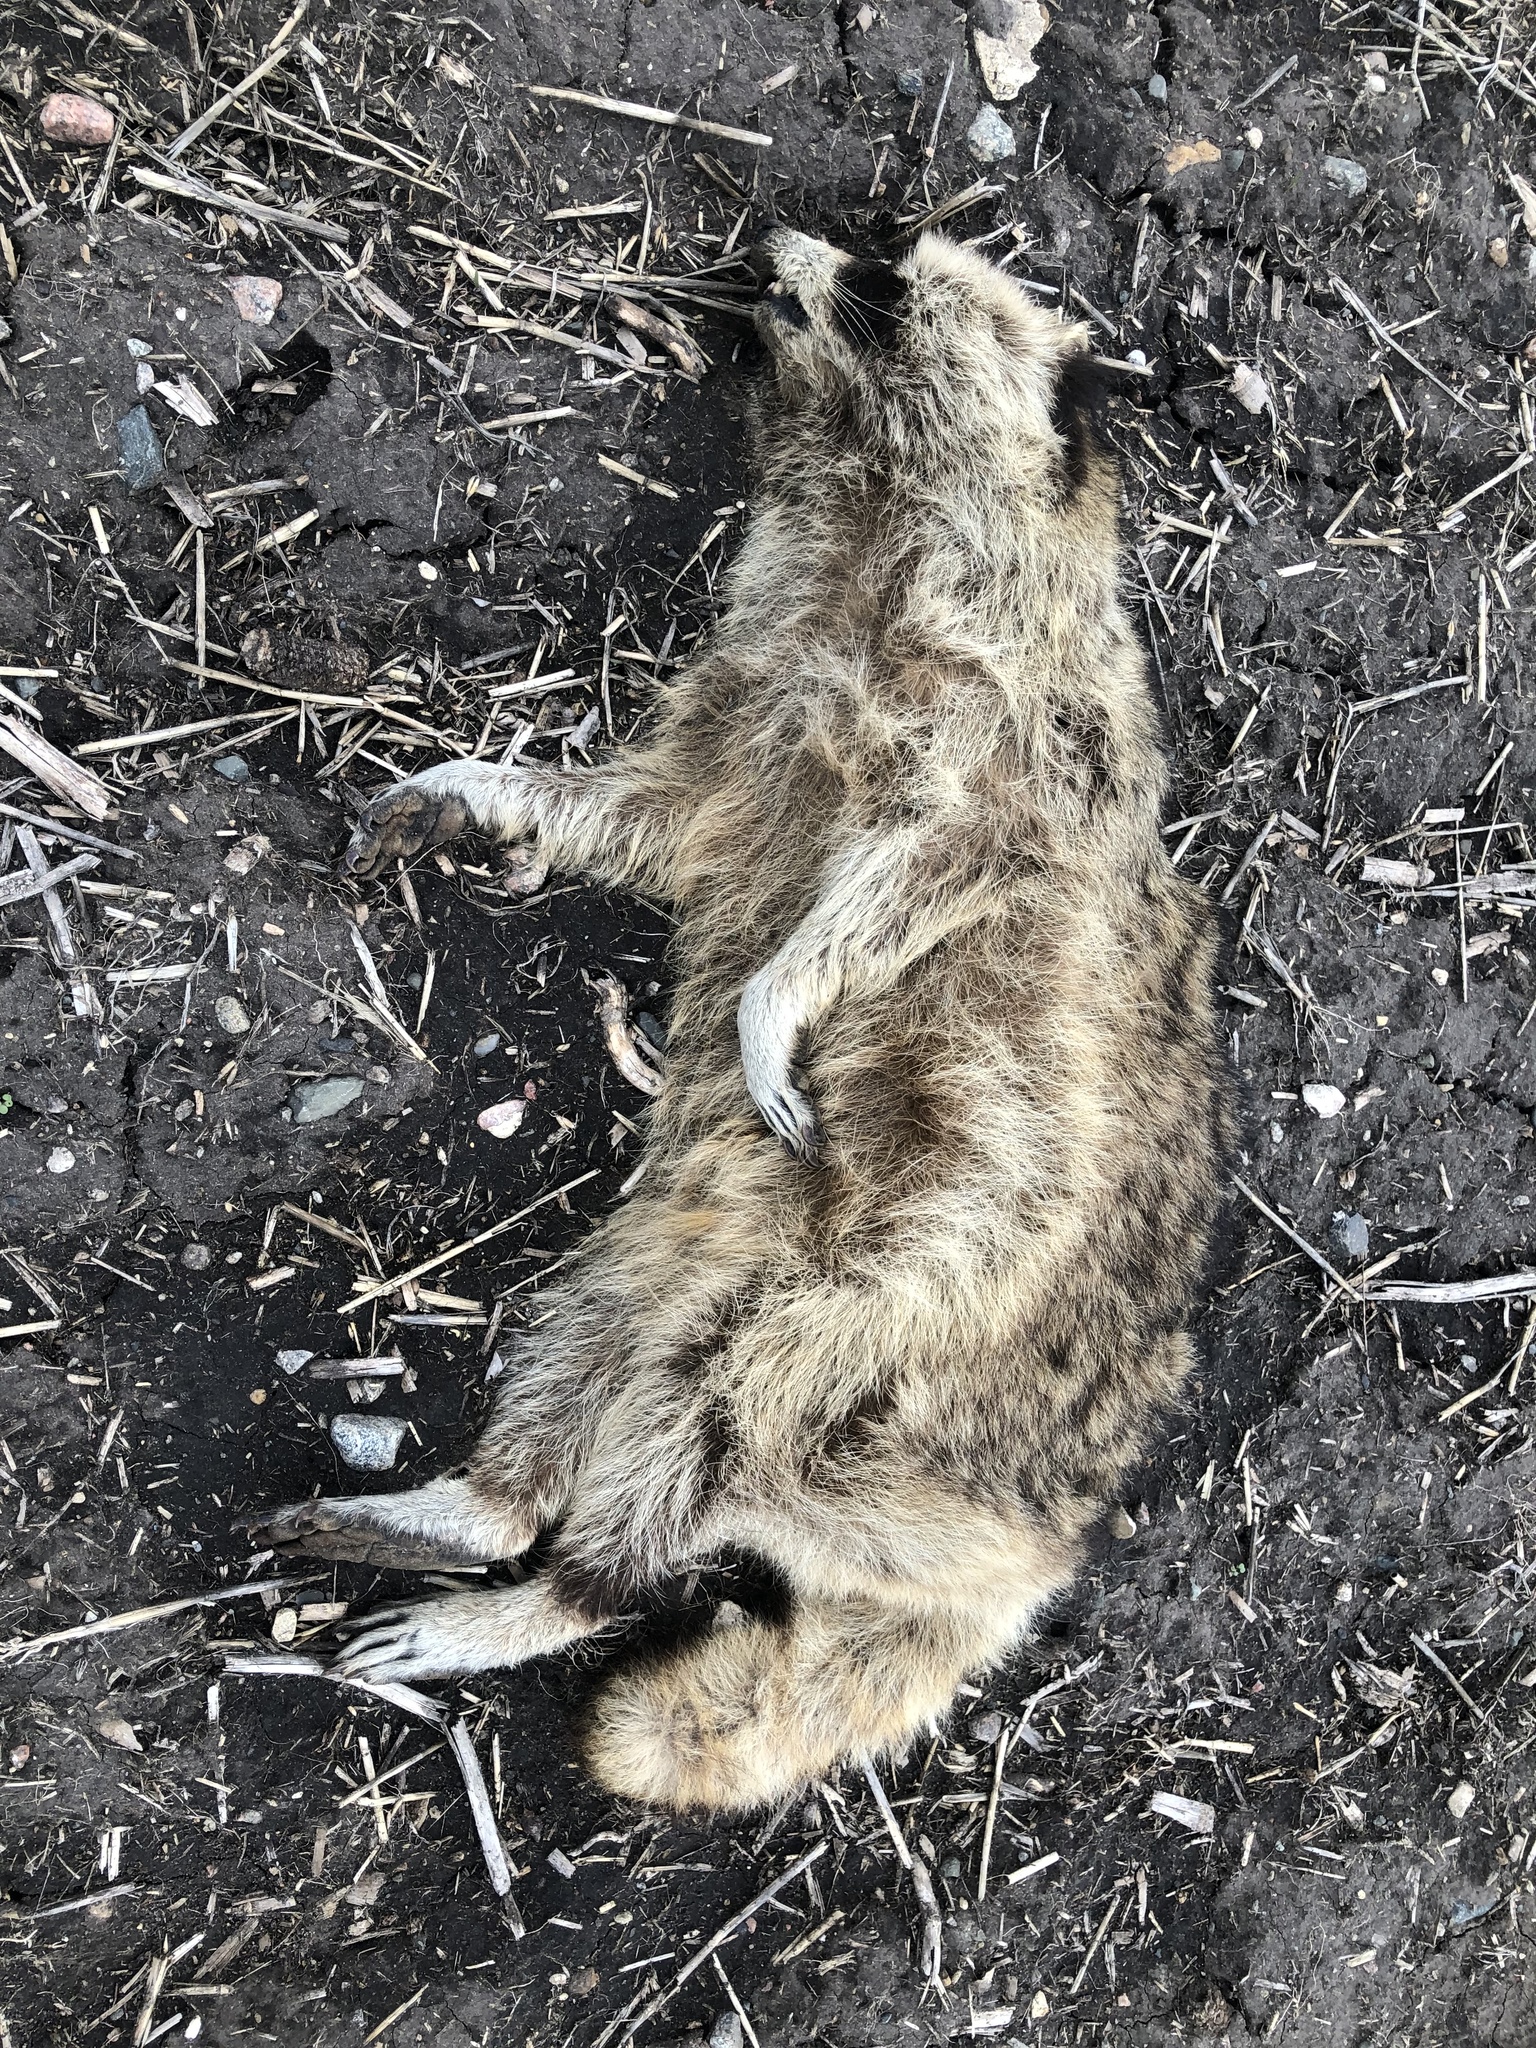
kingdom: Animalia
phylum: Chordata
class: Mammalia
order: Carnivora
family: Procyonidae
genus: Procyon
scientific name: Procyon lotor
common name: Raccoon
